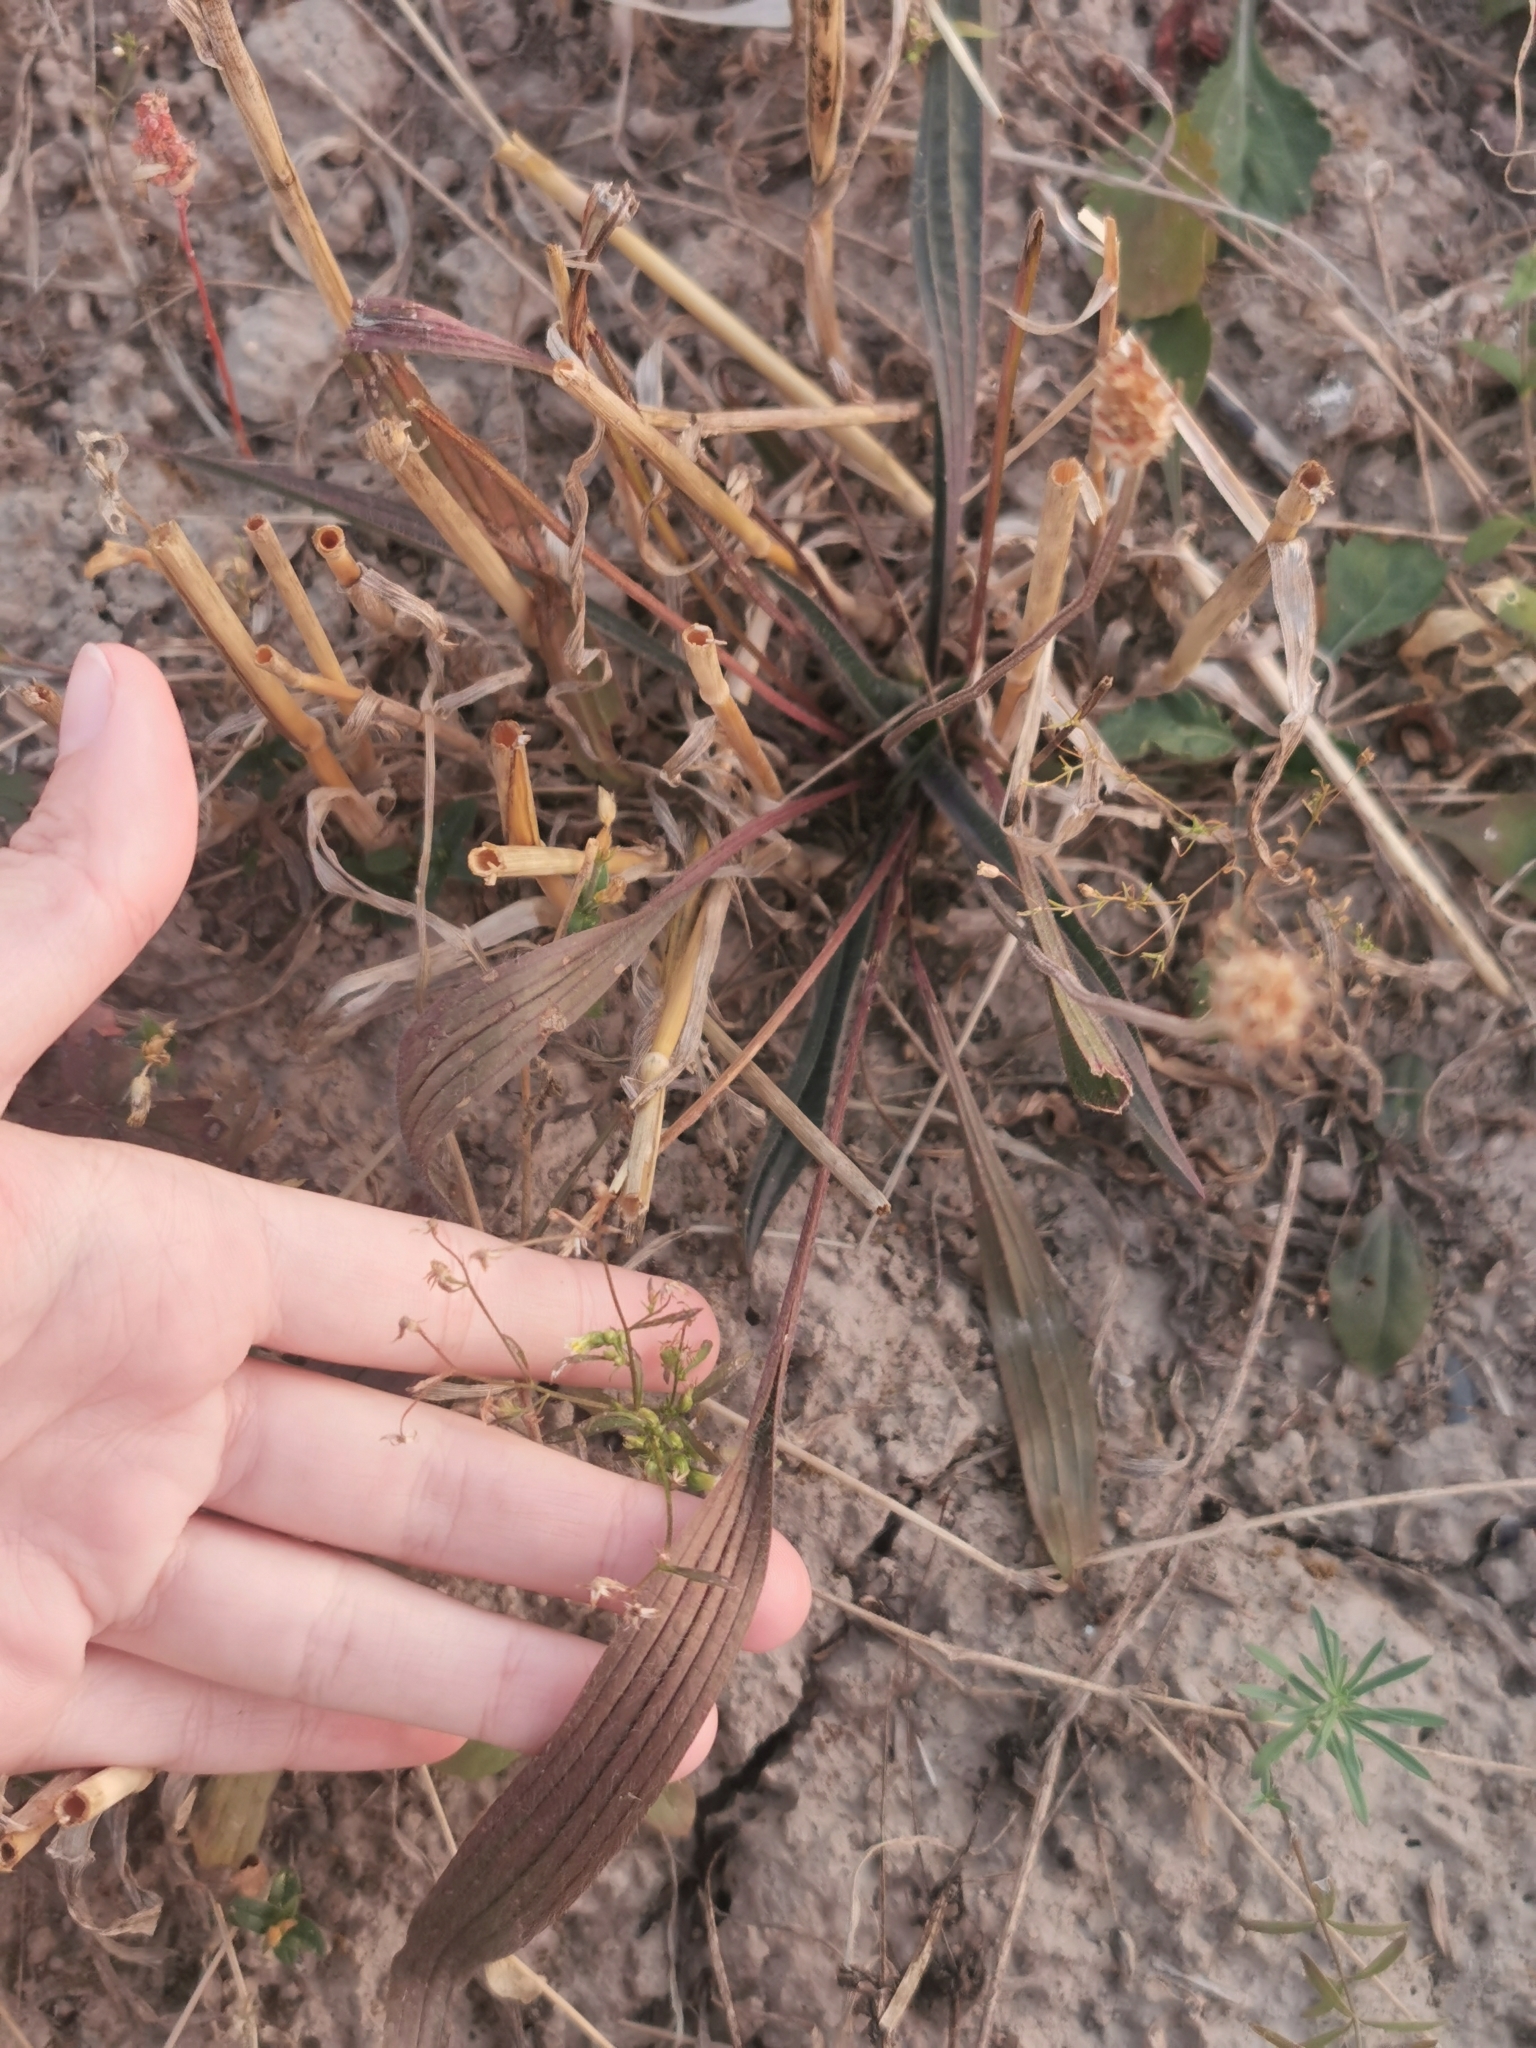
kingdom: Plantae
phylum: Tracheophyta
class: Magnoliopsida
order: Lamiales
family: Plantaginaceae
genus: Plantago
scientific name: Plantago lanceolata
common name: Ribwort plantain
